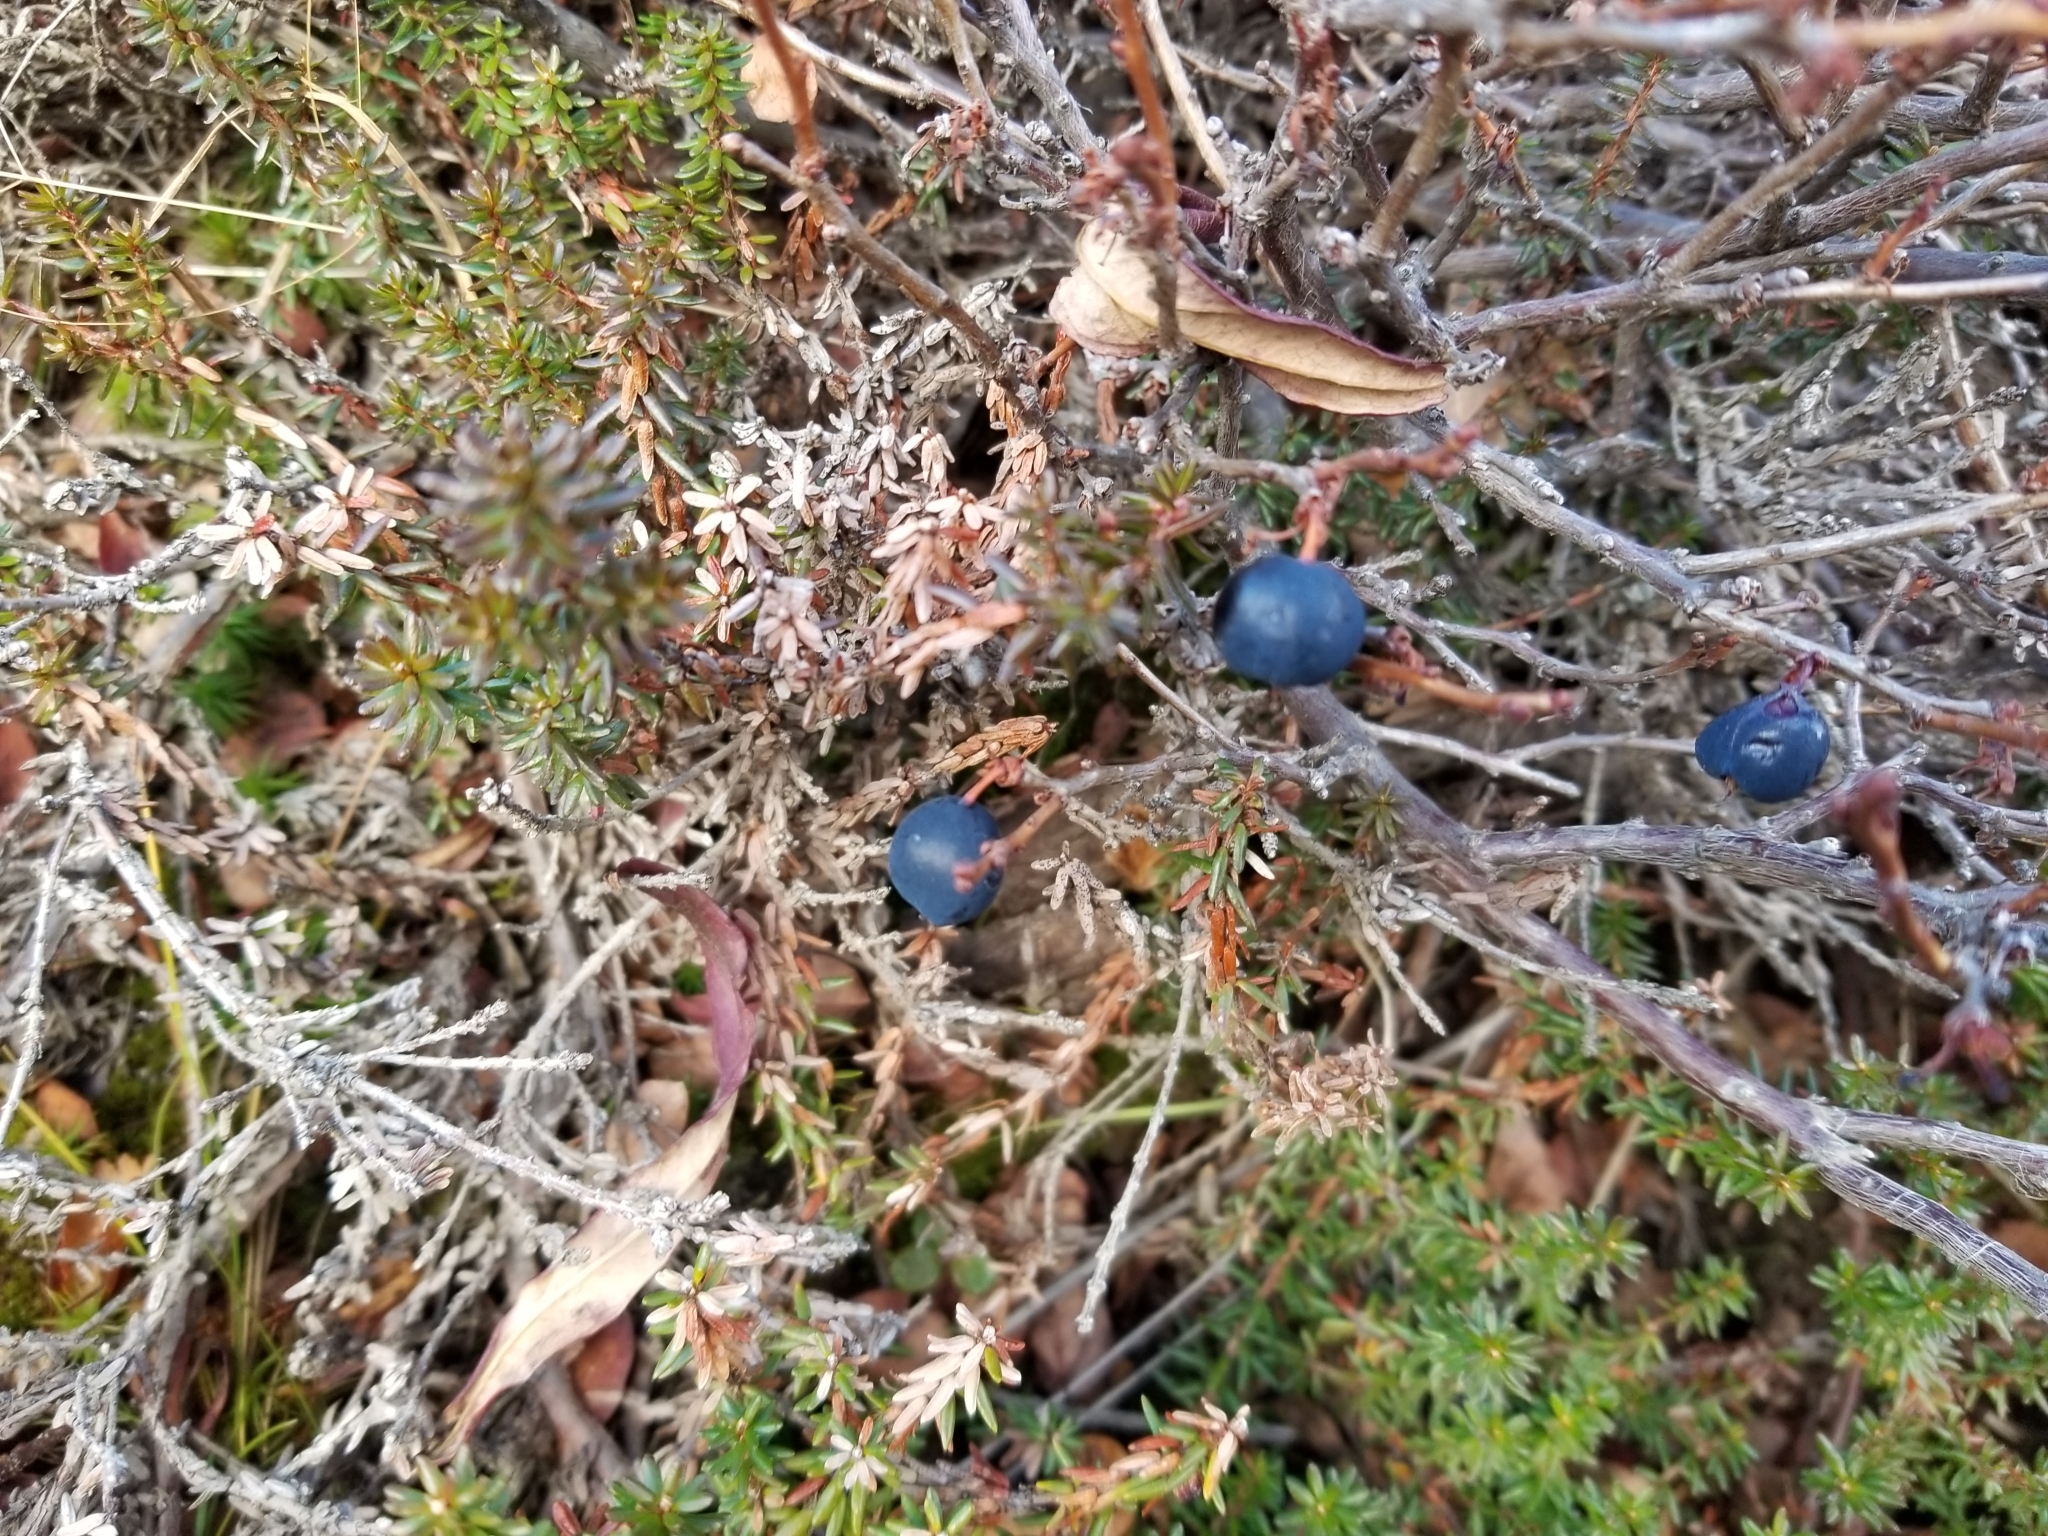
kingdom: Plantae
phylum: Tracheophyta
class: Magnoliopsida
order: Ericales
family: Ericaceae
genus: Vaccinium
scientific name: Vaccinium uliginosum
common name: Bog bilberry
